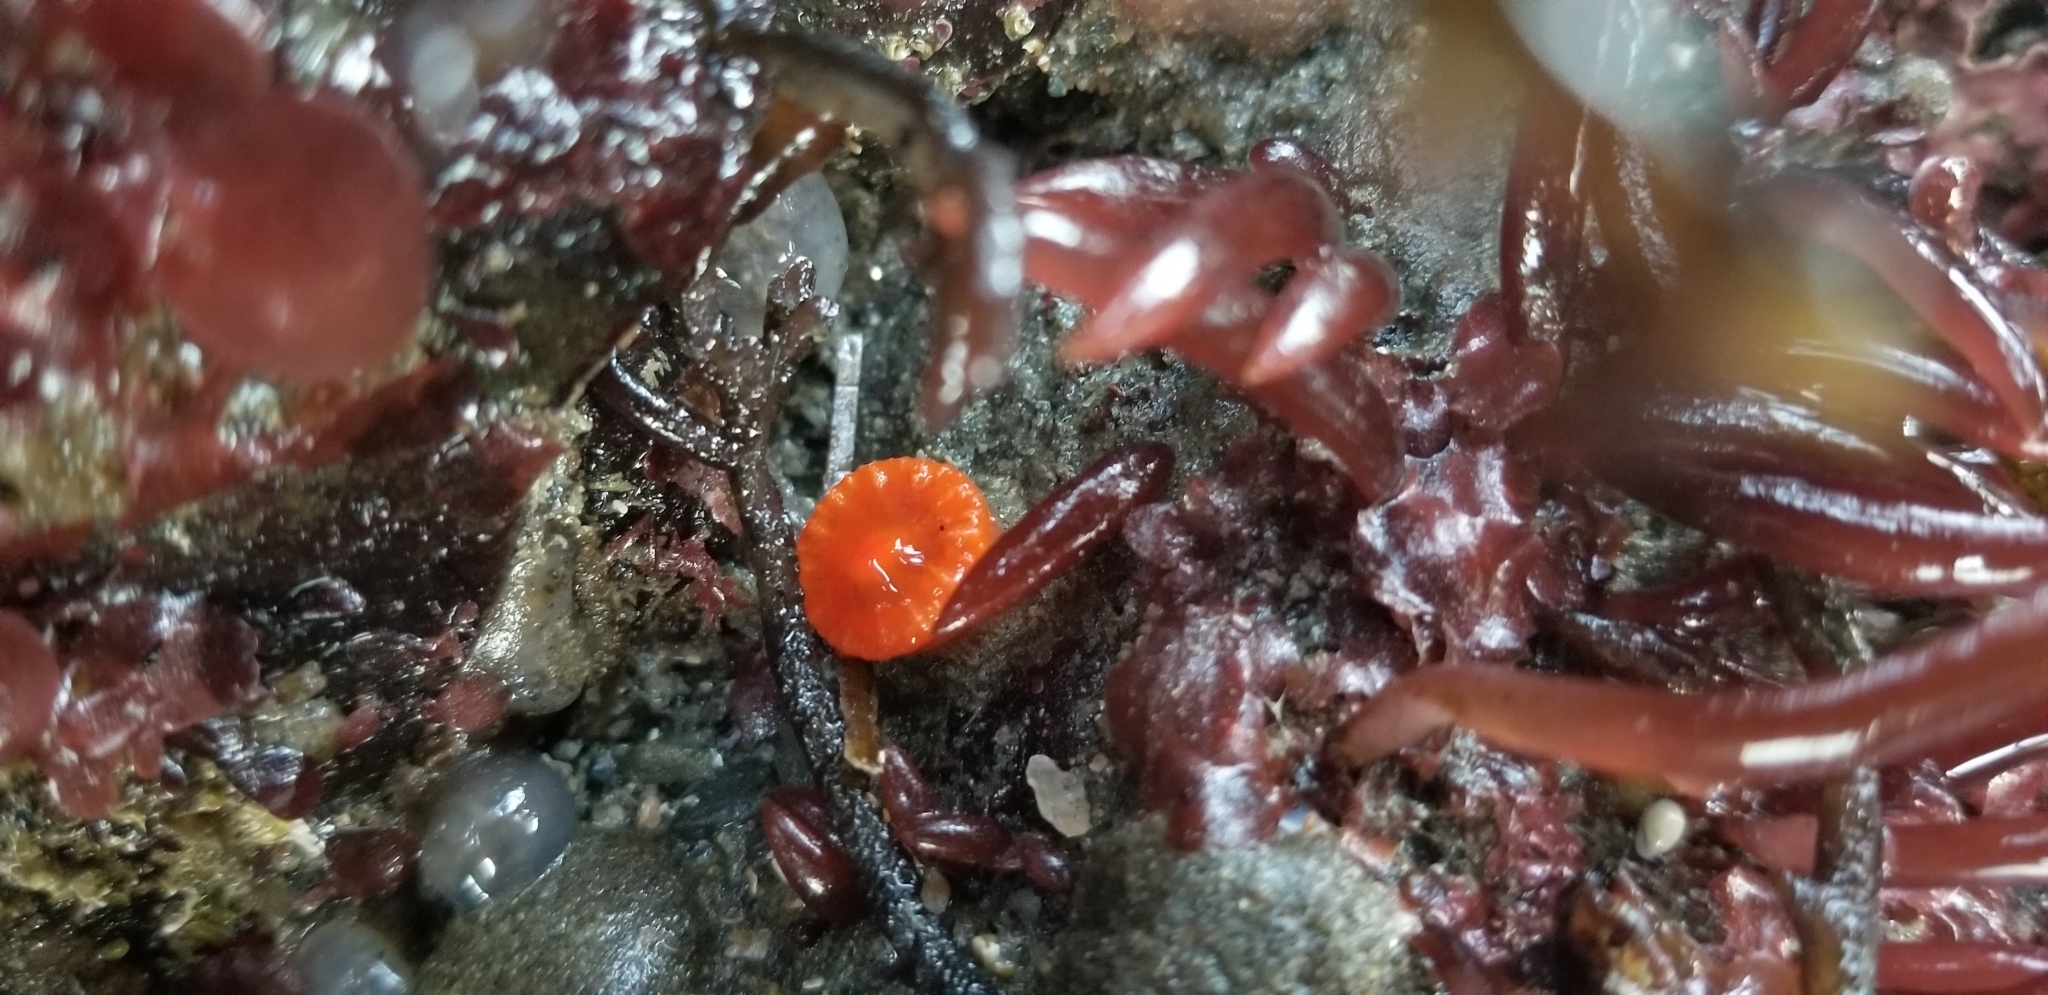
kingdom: Animalia
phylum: Cnidaria
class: Anthozoa
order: Scleractinia
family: Dendrophylliidae
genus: Balanophyllia
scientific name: Balanophyllia elegans
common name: Orange stony coral
